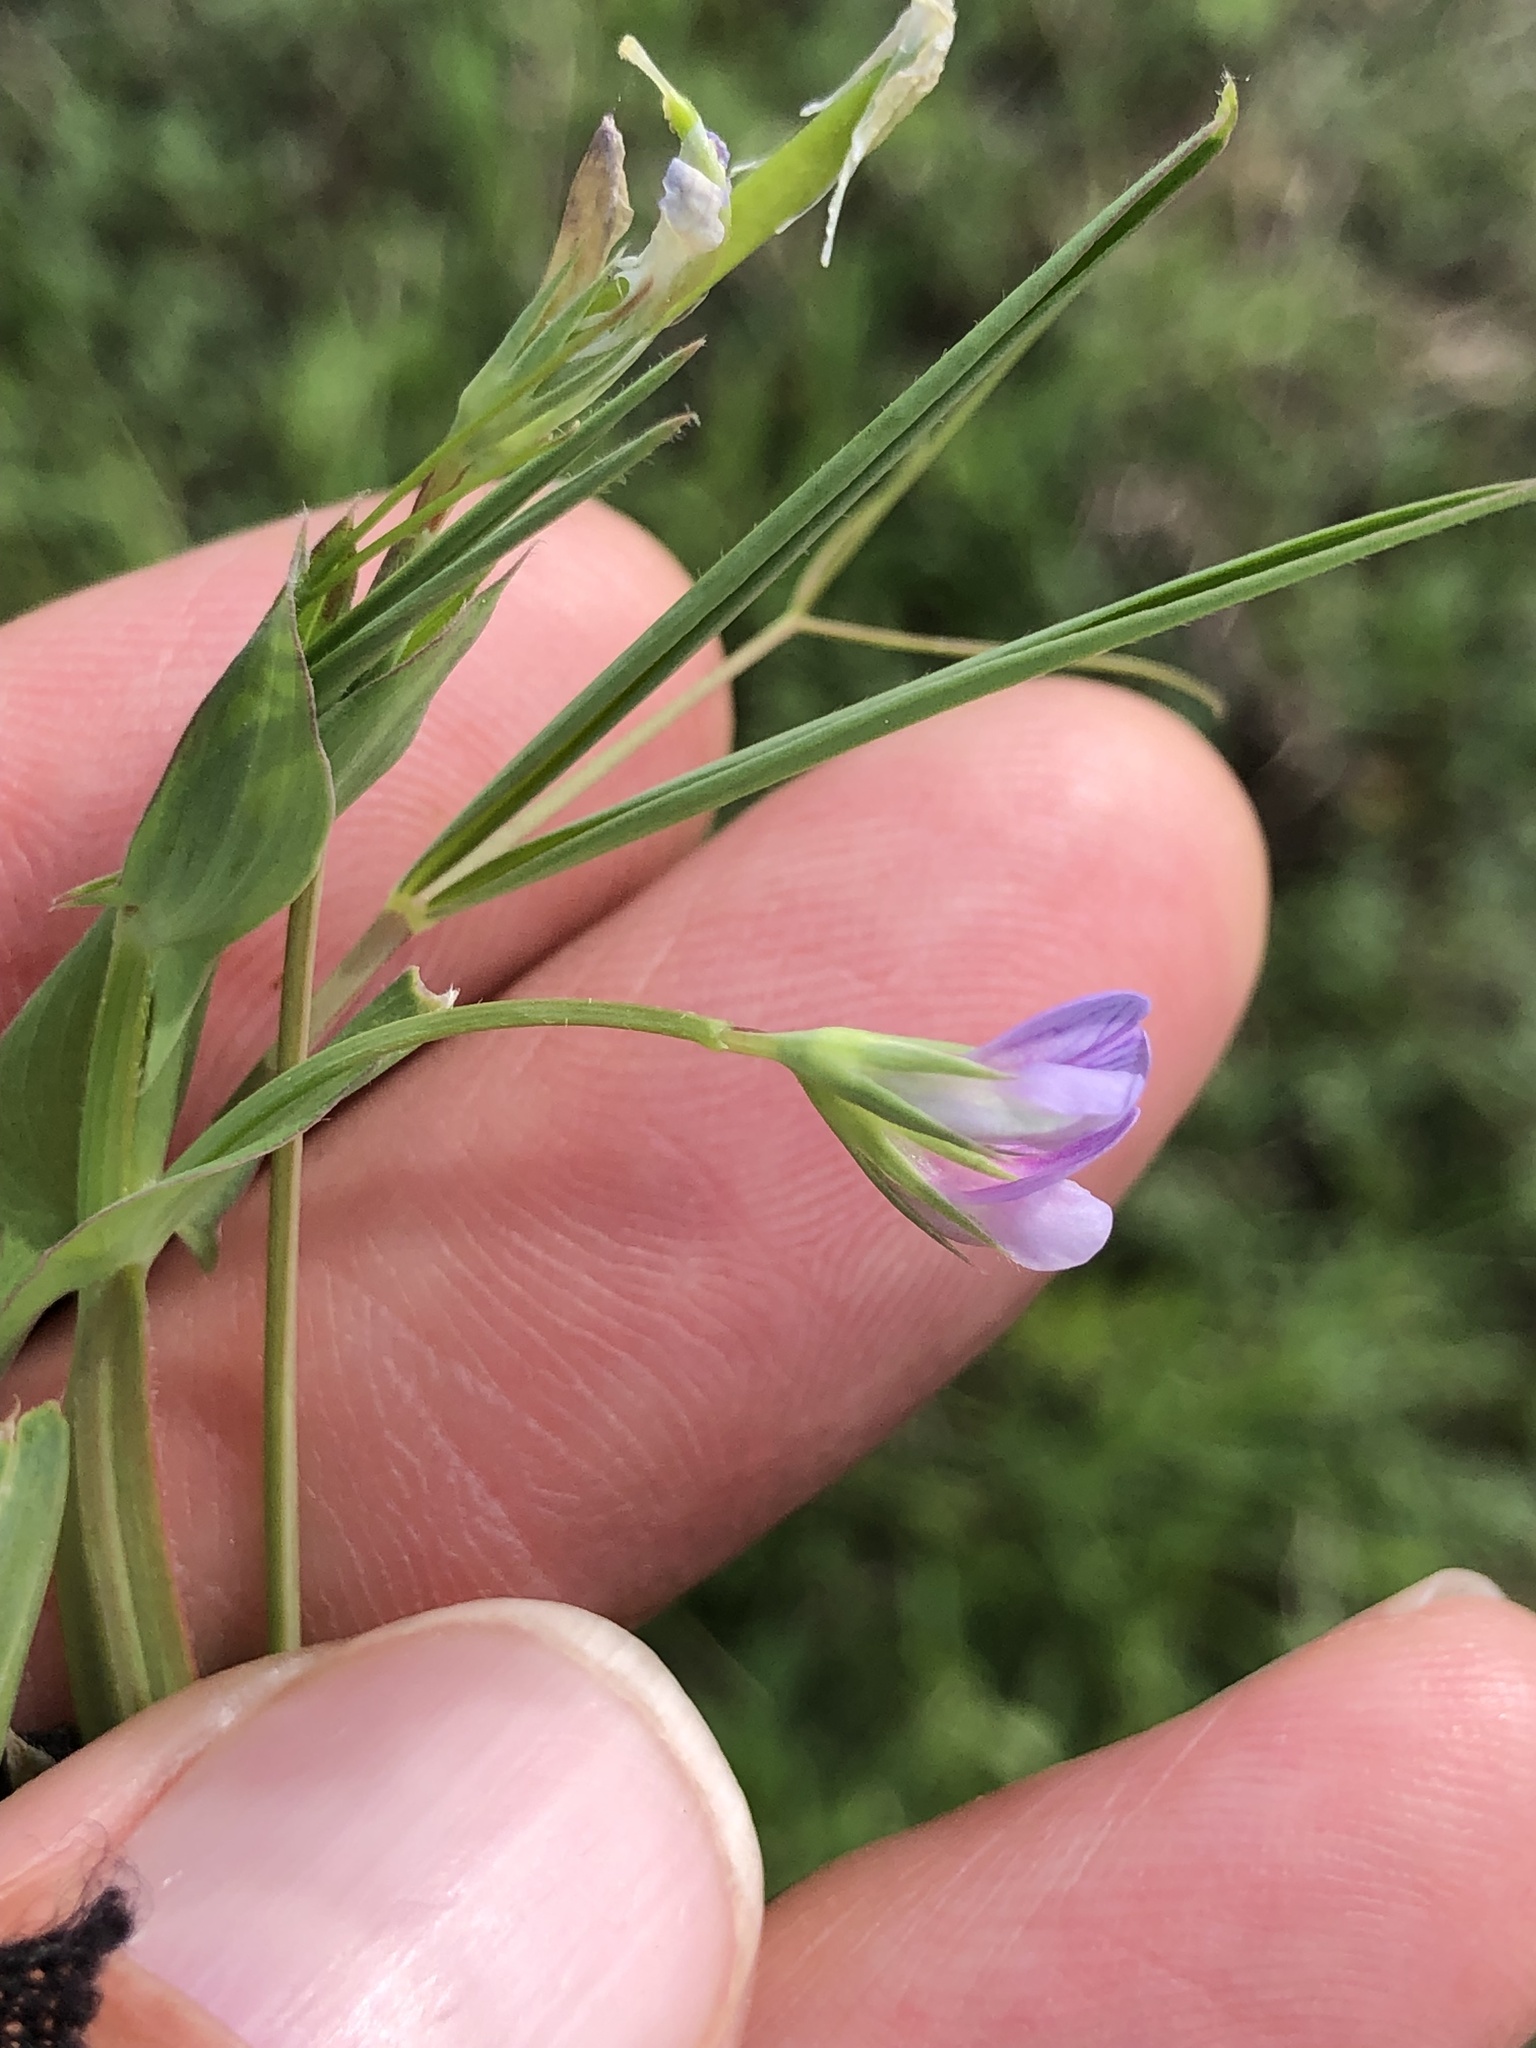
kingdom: Plantae
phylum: Tracheophyta
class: Magnoliopsida
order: Fabales
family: Fabaceae
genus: Lathyrus
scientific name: Lathyrus pusillus
